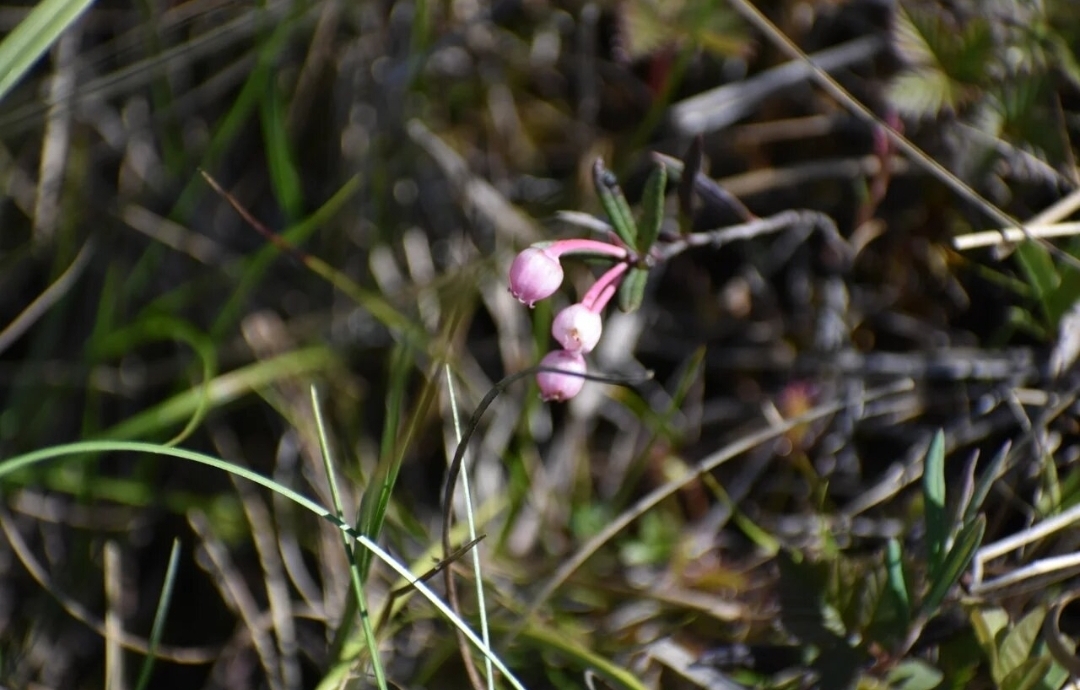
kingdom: Plantae
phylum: Tracheophyta
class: Magnoliopsida
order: Ericales
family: Ericaceae
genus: Andromeda
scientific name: Andromeda polifolia
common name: Bog-rosemary
